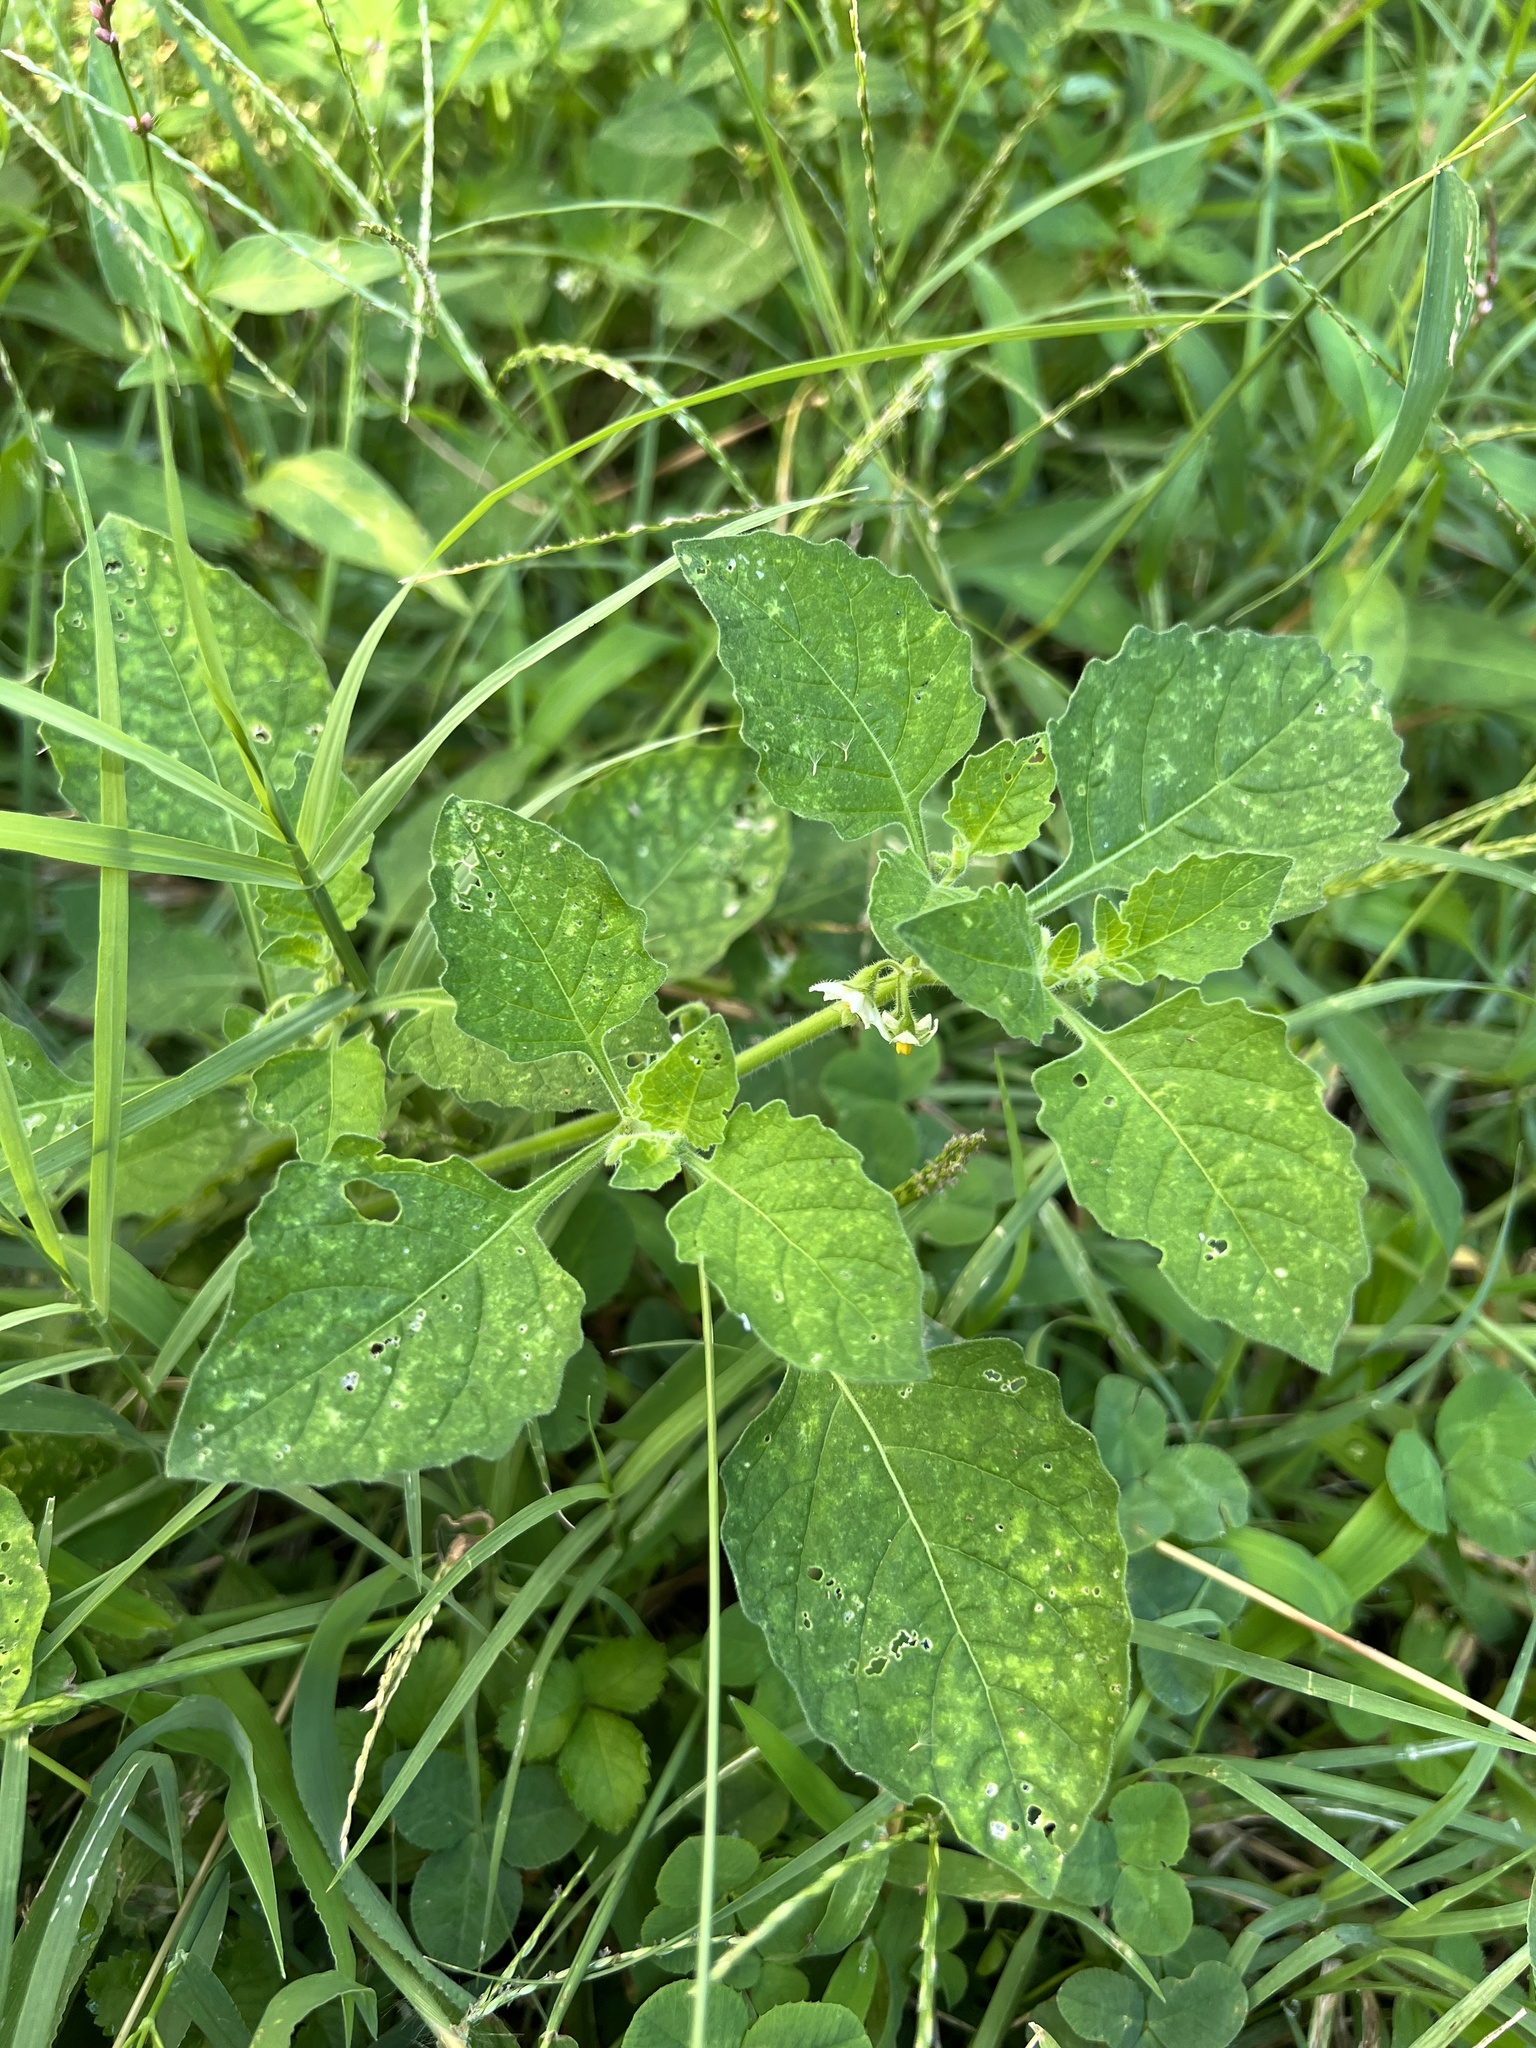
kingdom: Plantae
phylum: Tracheophyta
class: Magnoliopsida
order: Solanales
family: Solanaceae
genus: Solanum
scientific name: Solanum sarrachoides
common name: Leafy-fruited nightshade
